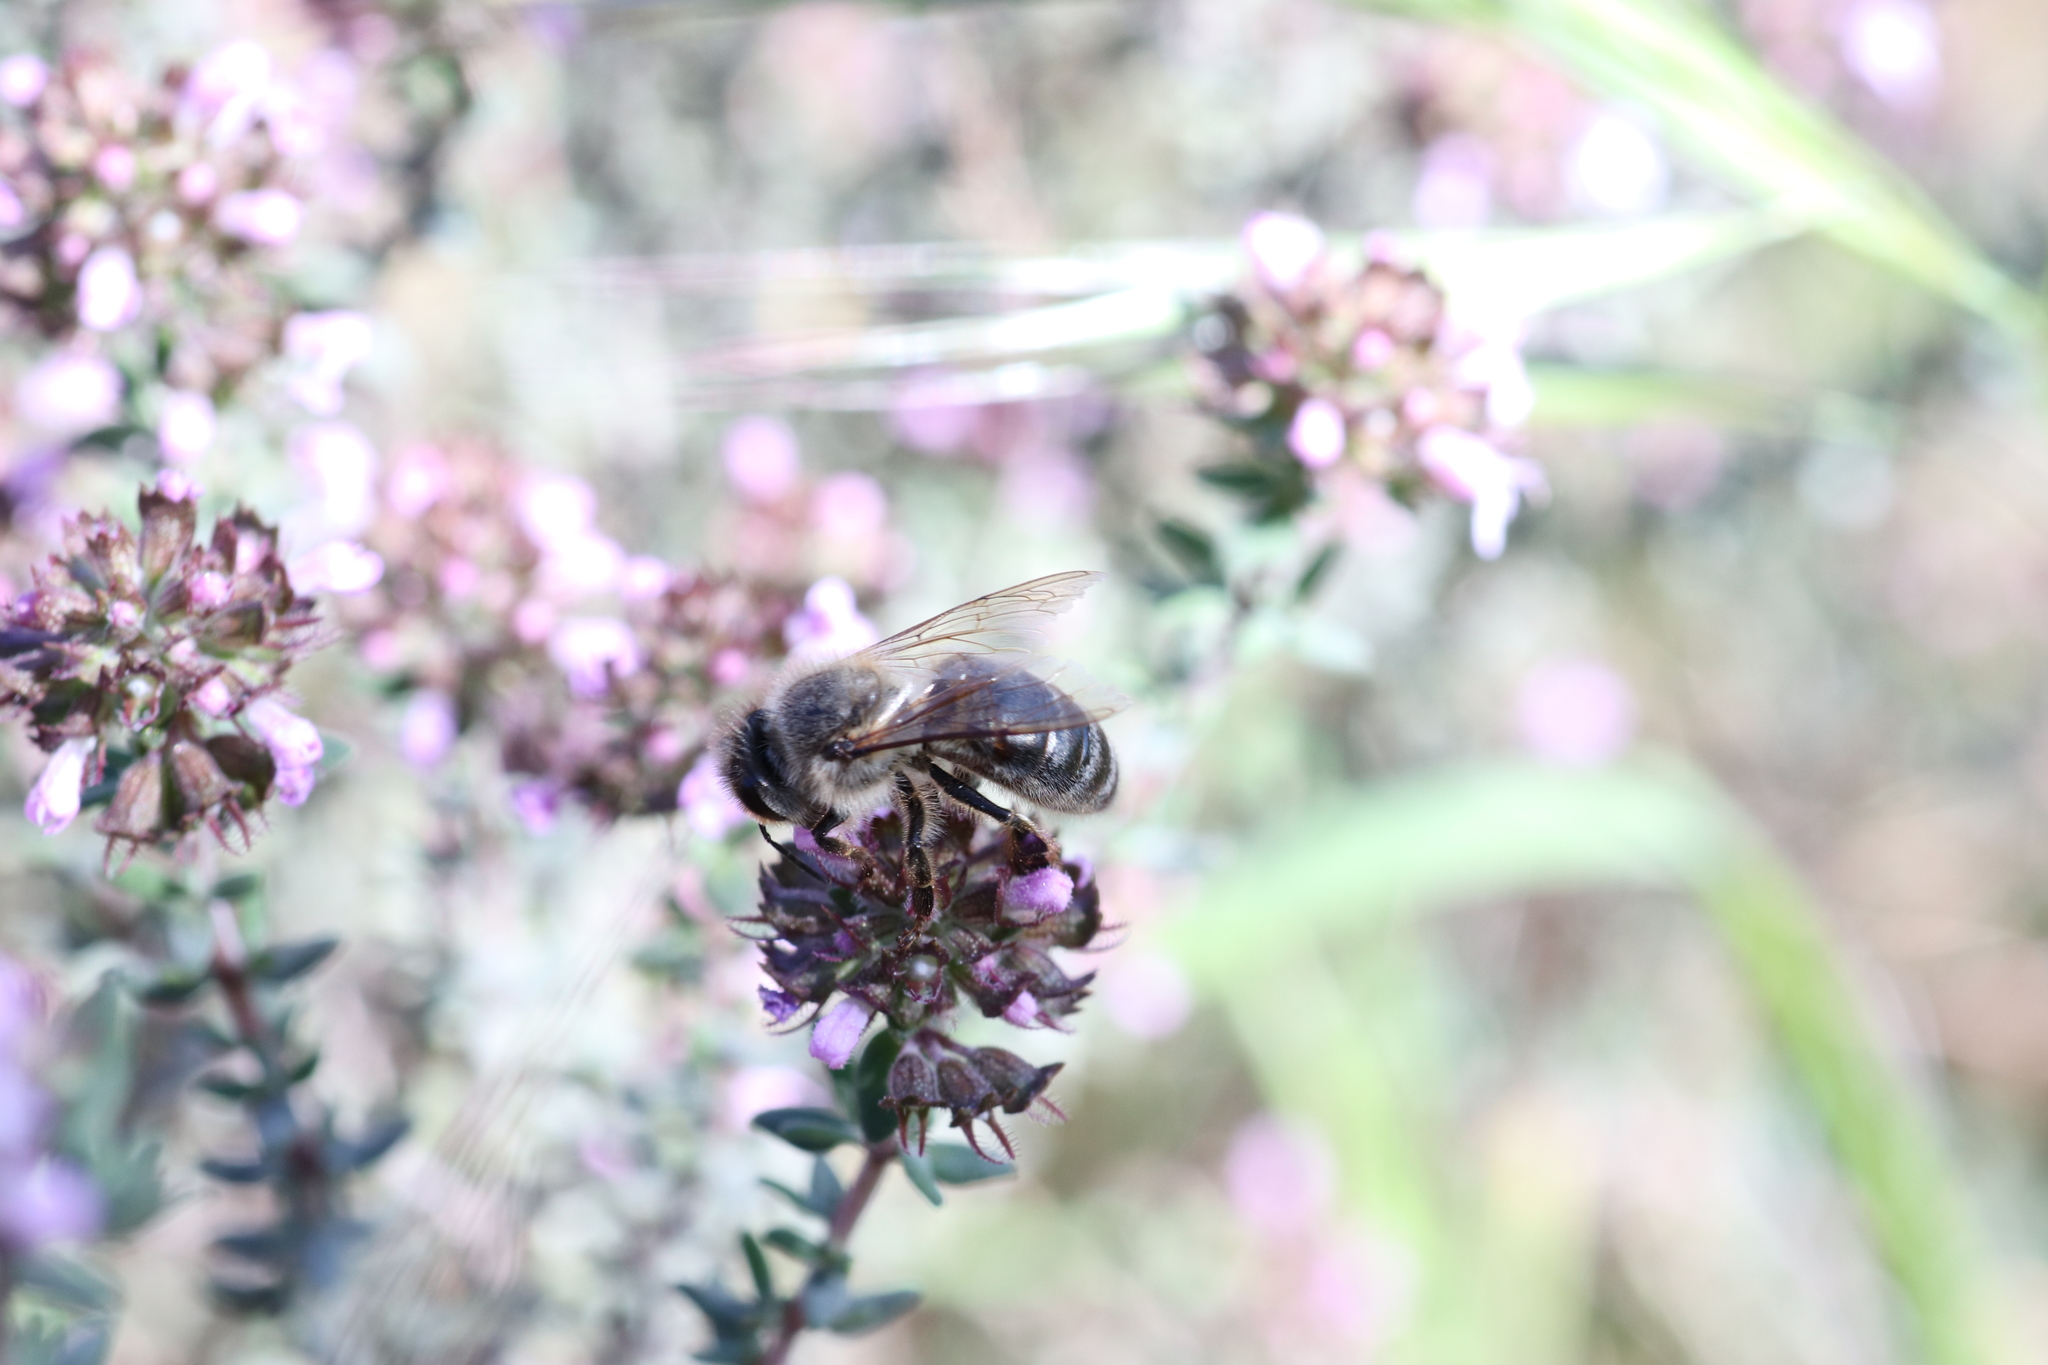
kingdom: Animalia
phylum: Arthropoda
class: Insecta
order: Hymenoptera
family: Apidae
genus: Apis
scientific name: Apis mellifera
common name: Honey bee
